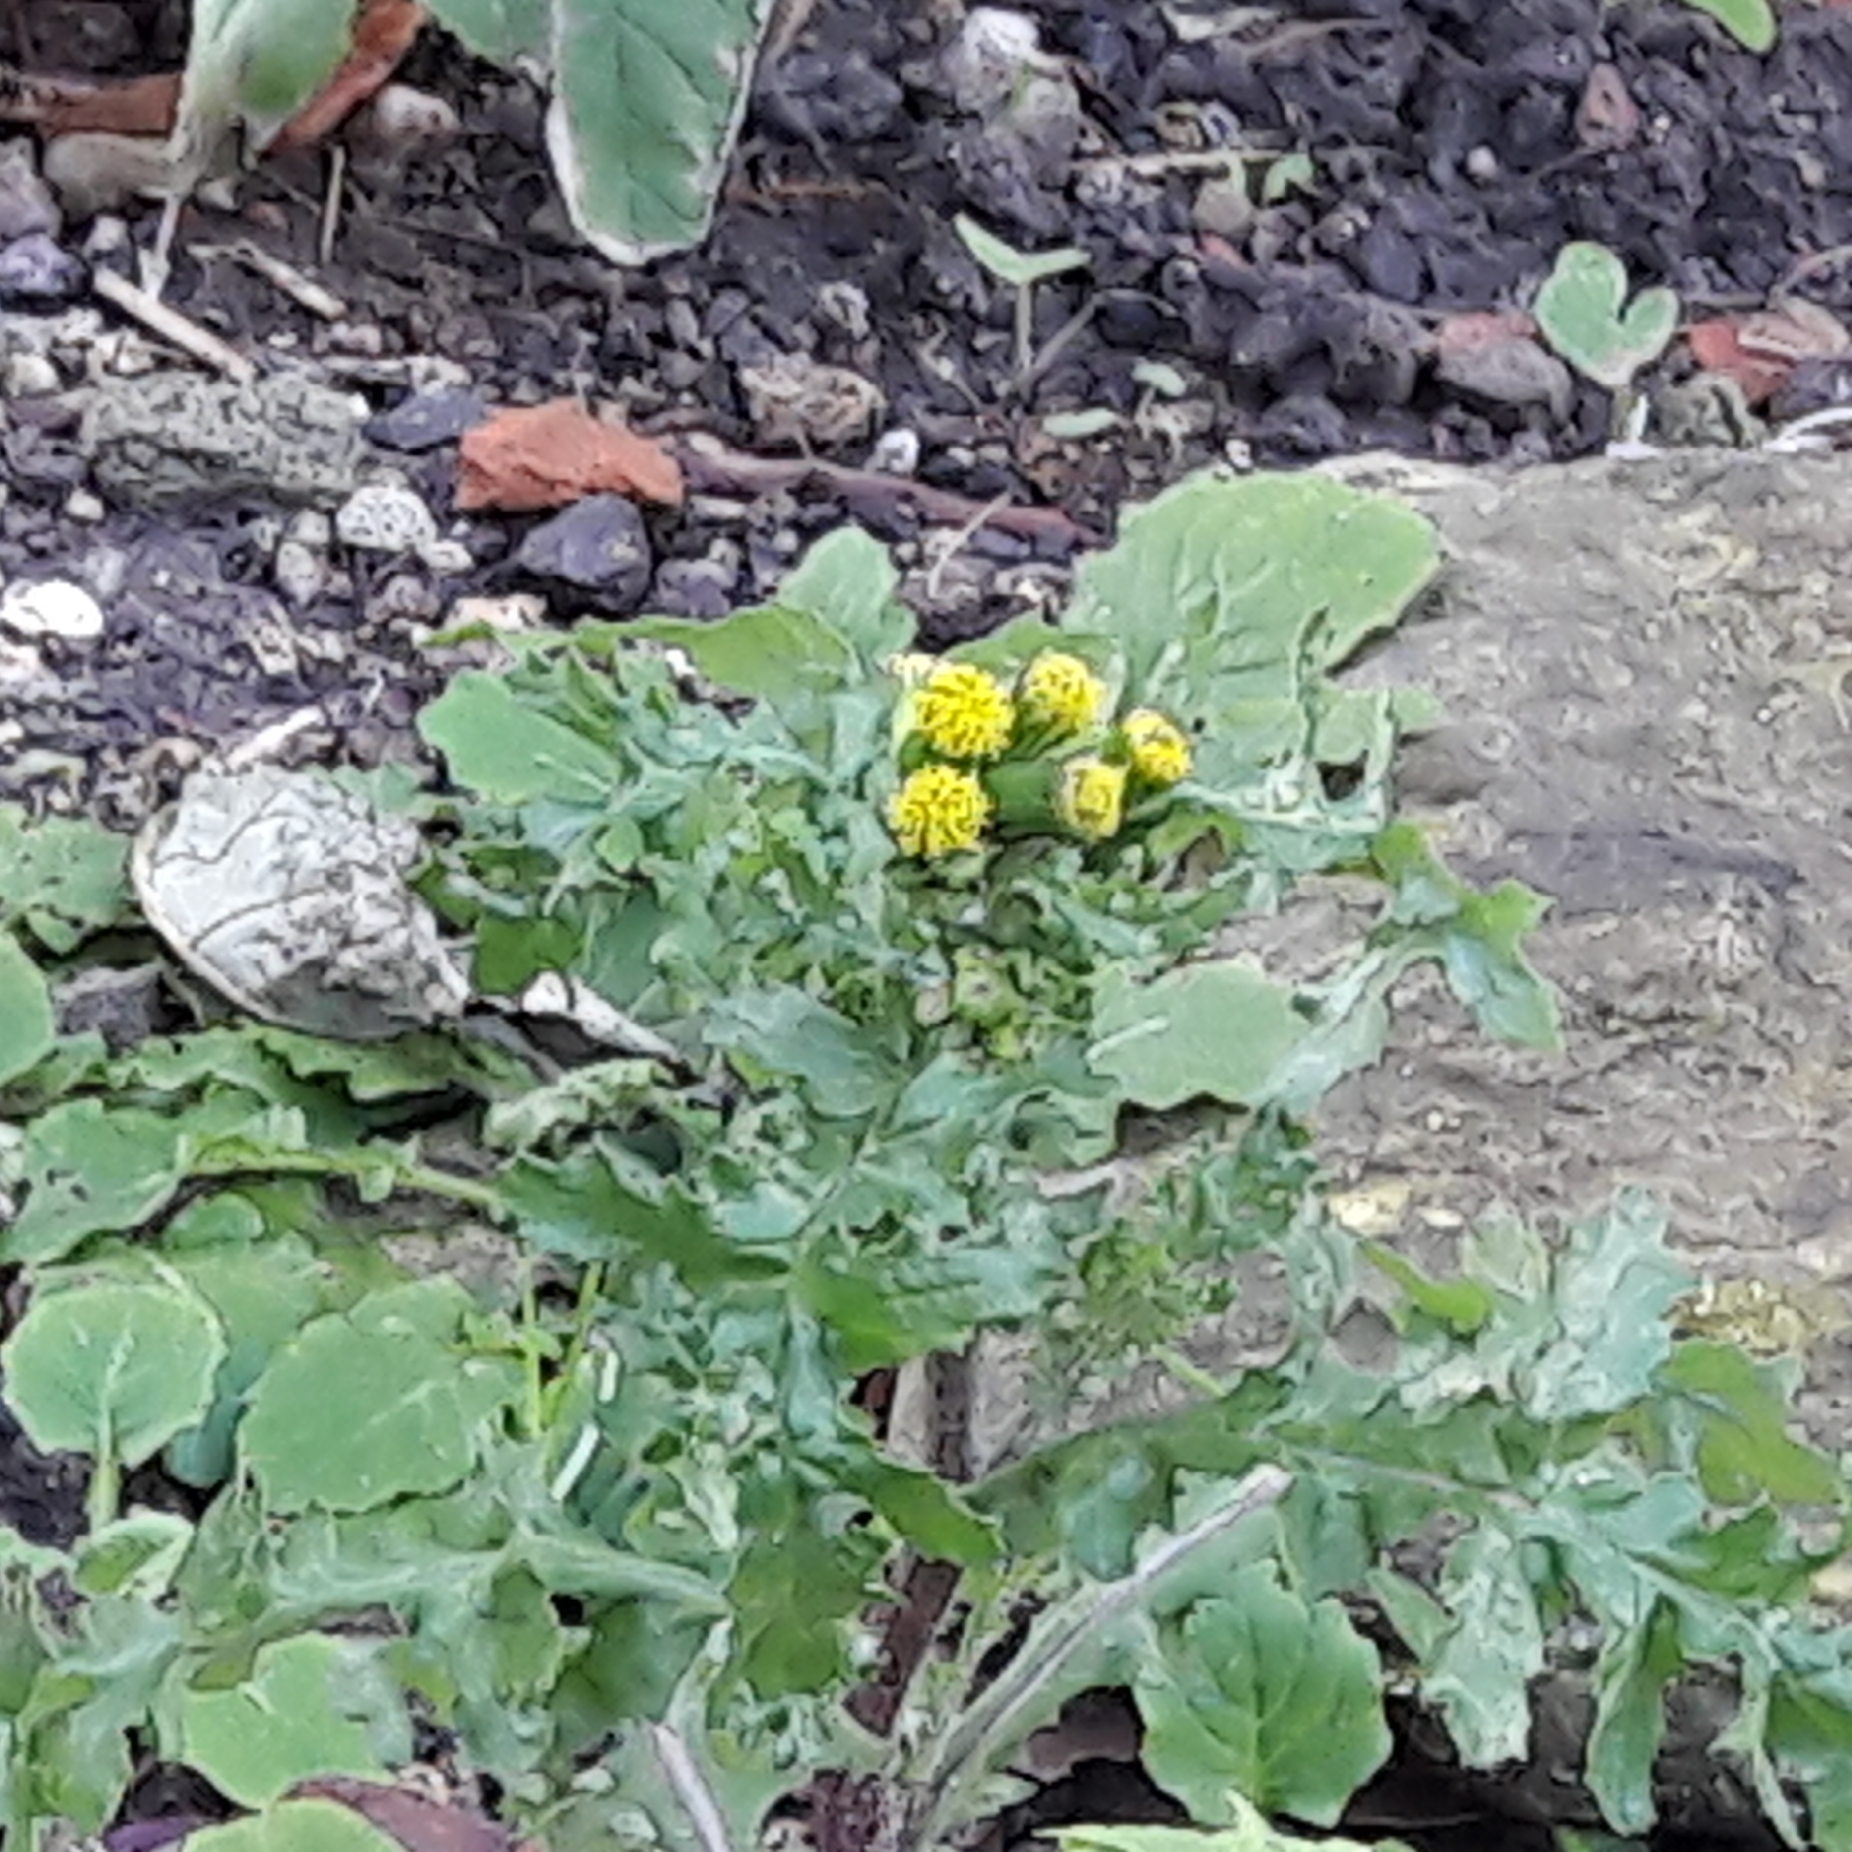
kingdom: Plantae
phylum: Tracheophyta
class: Magnoliopsida
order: Asterales
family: Asteraceae
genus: Senecio
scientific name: Senecio vulgaris
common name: Old-man-in-the-spring
